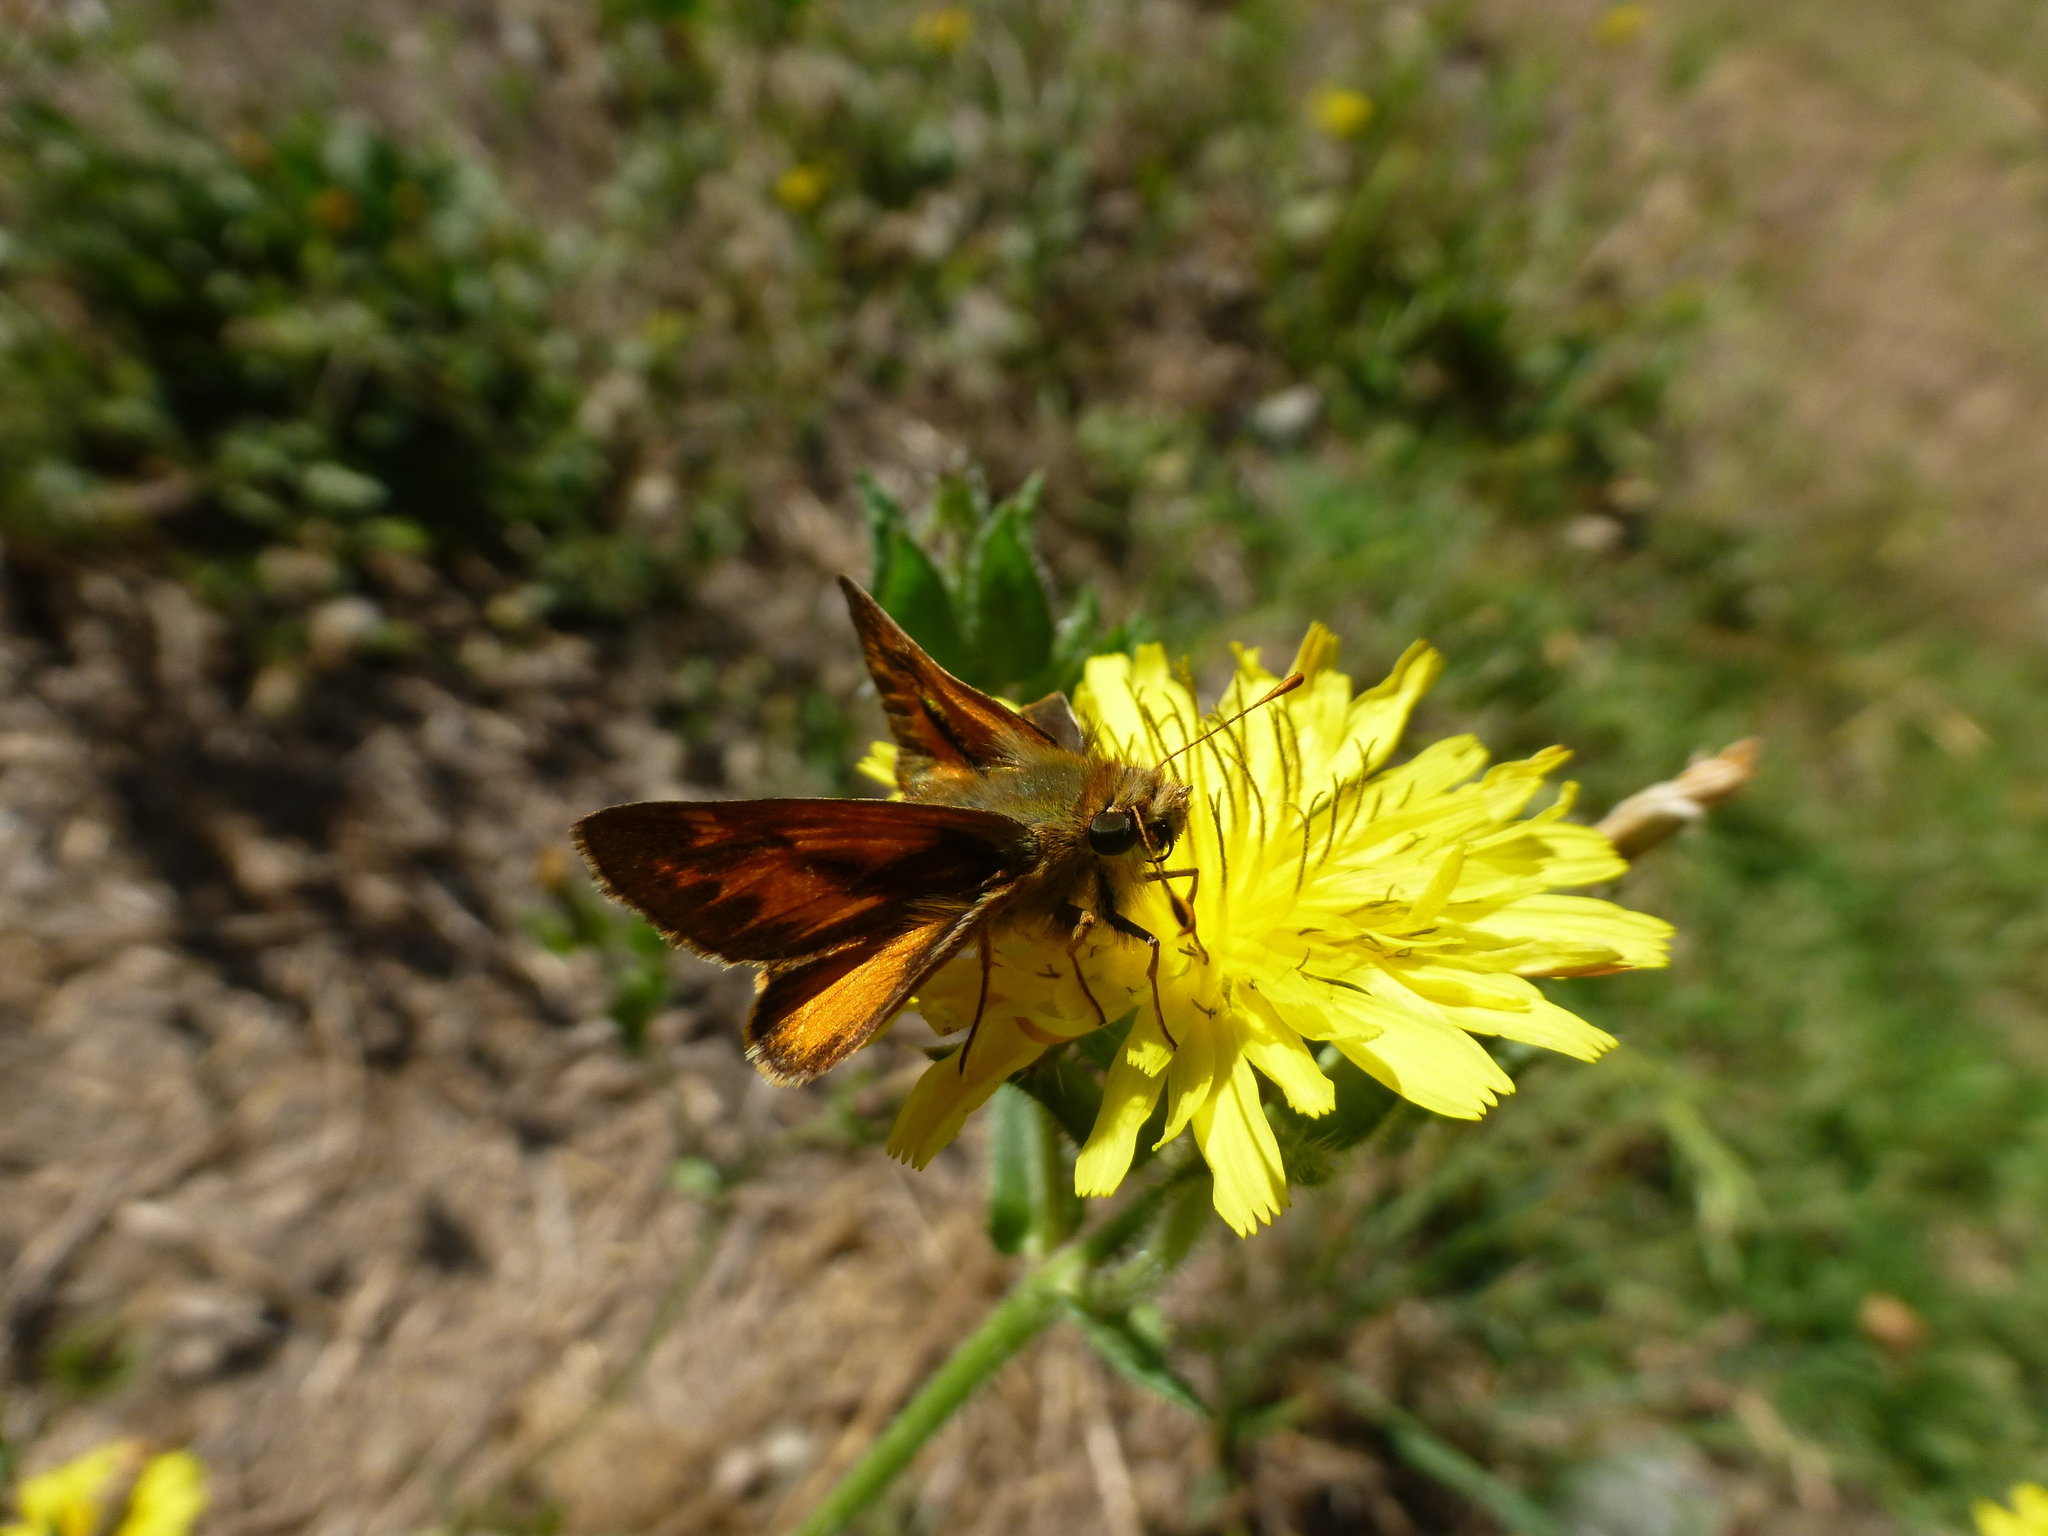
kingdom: Animalia
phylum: Arthropoda
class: Insecta
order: Lepidoptera
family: Hesperiidae
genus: Ochlodes
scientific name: Ochlodes sylvanoides
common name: Woodland skipper
